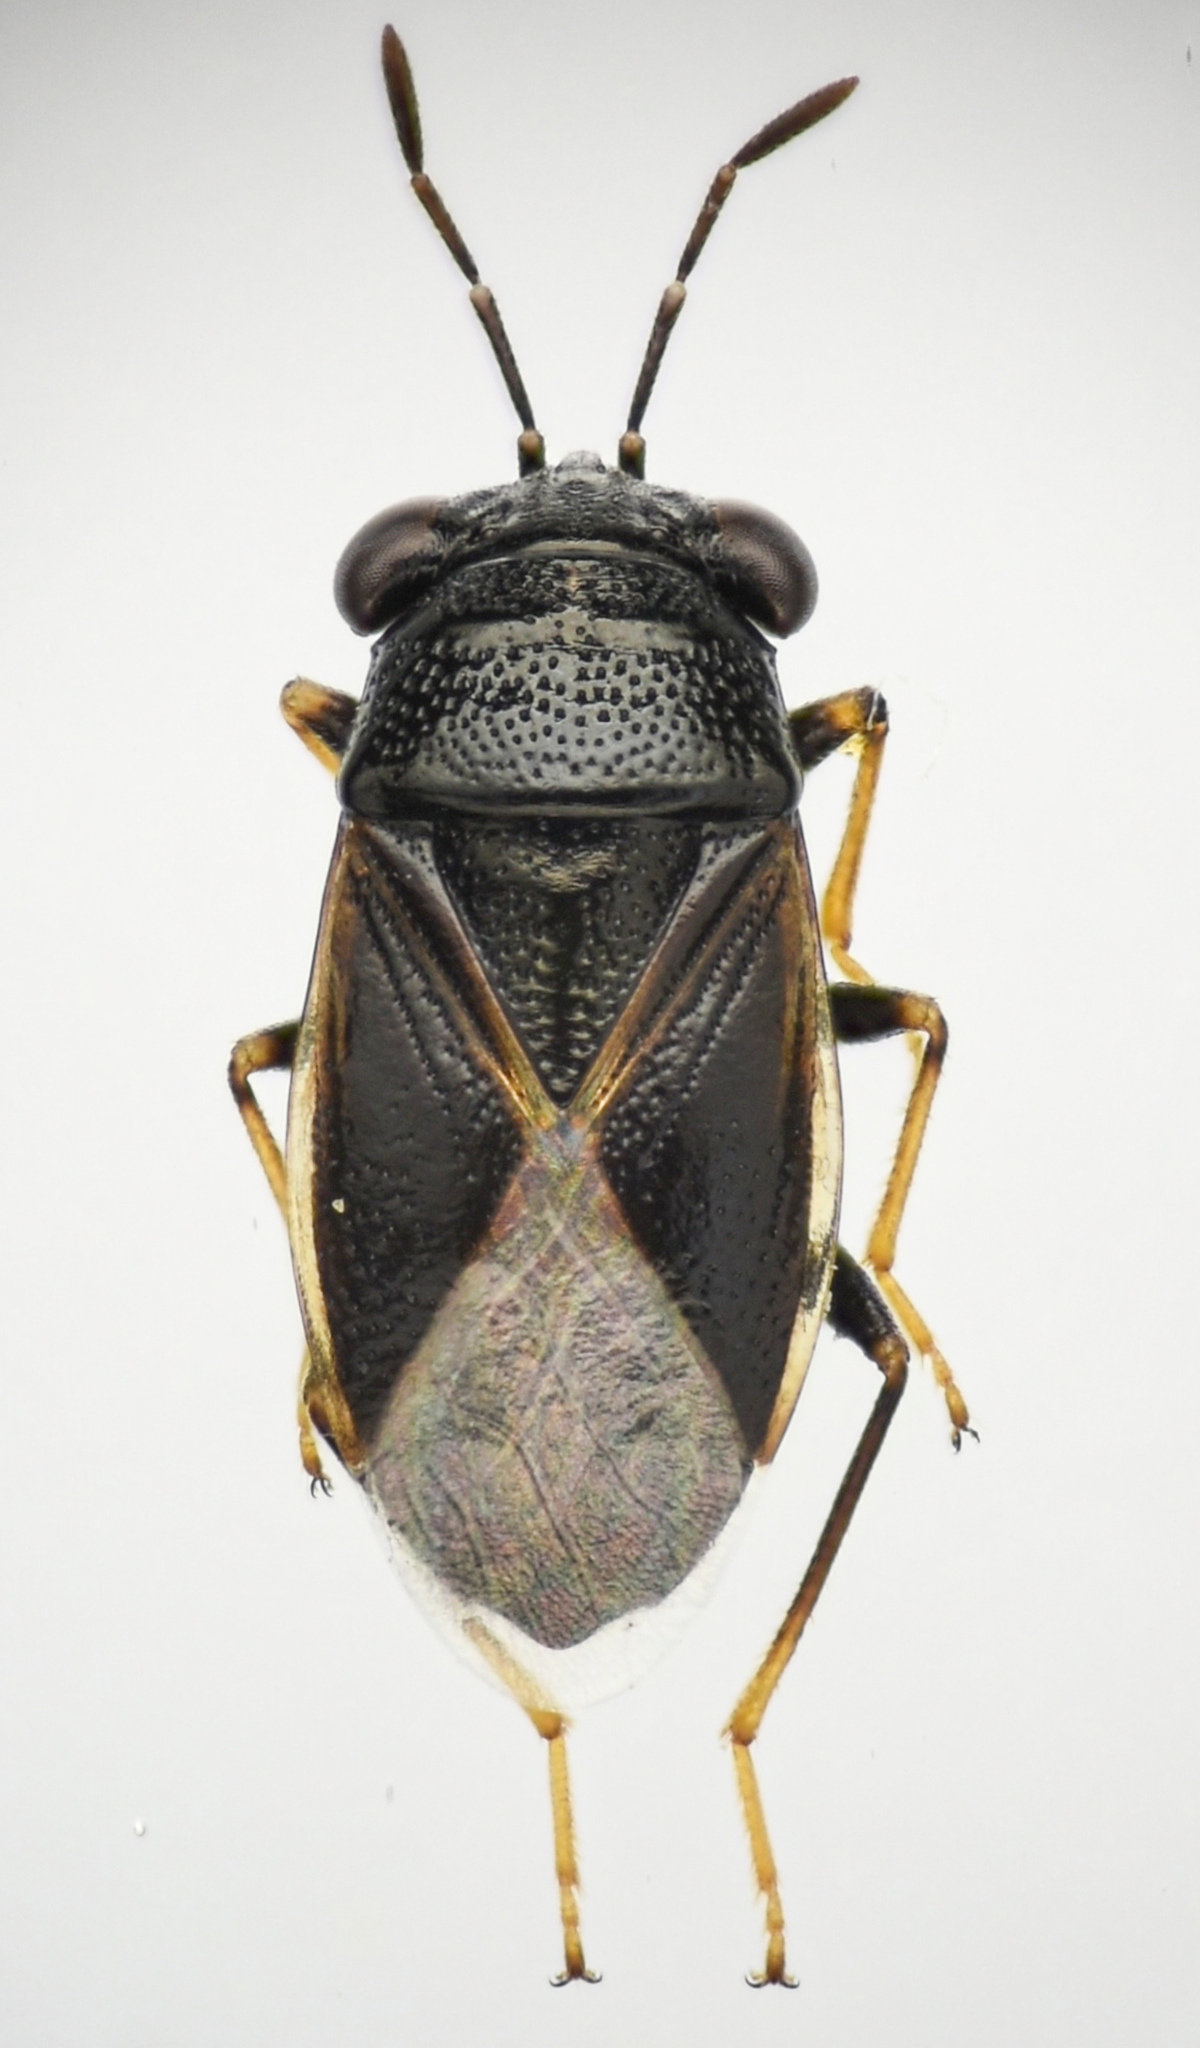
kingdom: Animalia
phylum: Arthropoda
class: Insecta
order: Hemiptera
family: Geocoridae
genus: Geocoris
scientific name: Geocoris atricolor
